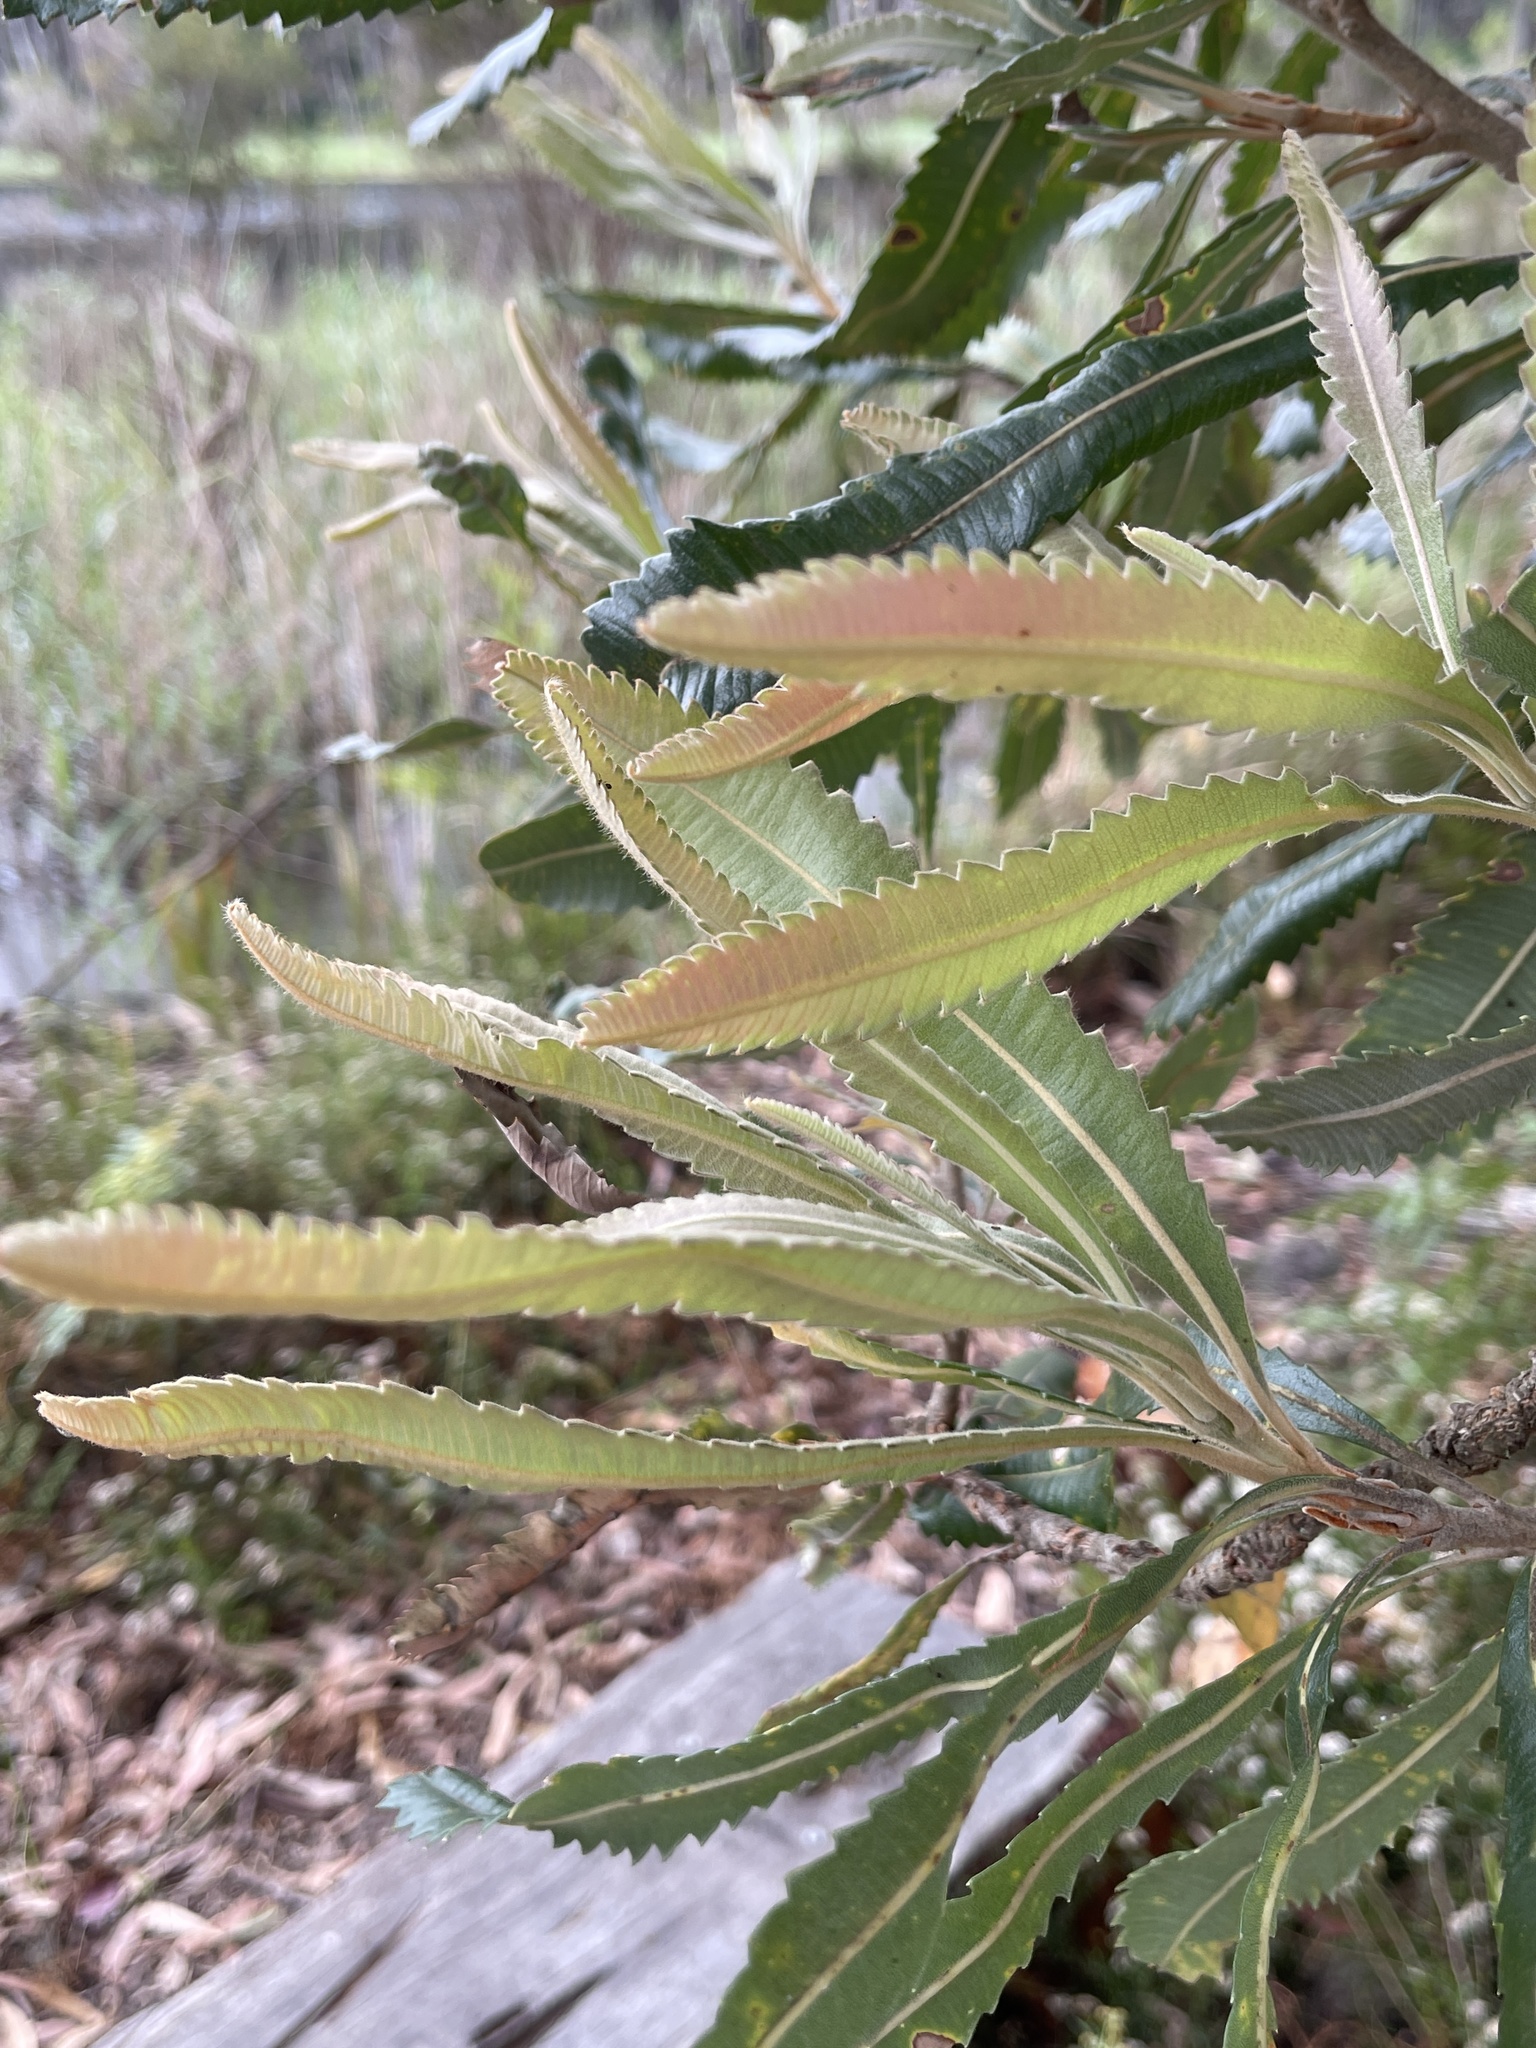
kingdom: Plantae
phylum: Tracheophyta
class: Magnoliopsida
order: Proteales
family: Proteaceae
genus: Banksia
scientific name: Banksia serrata
